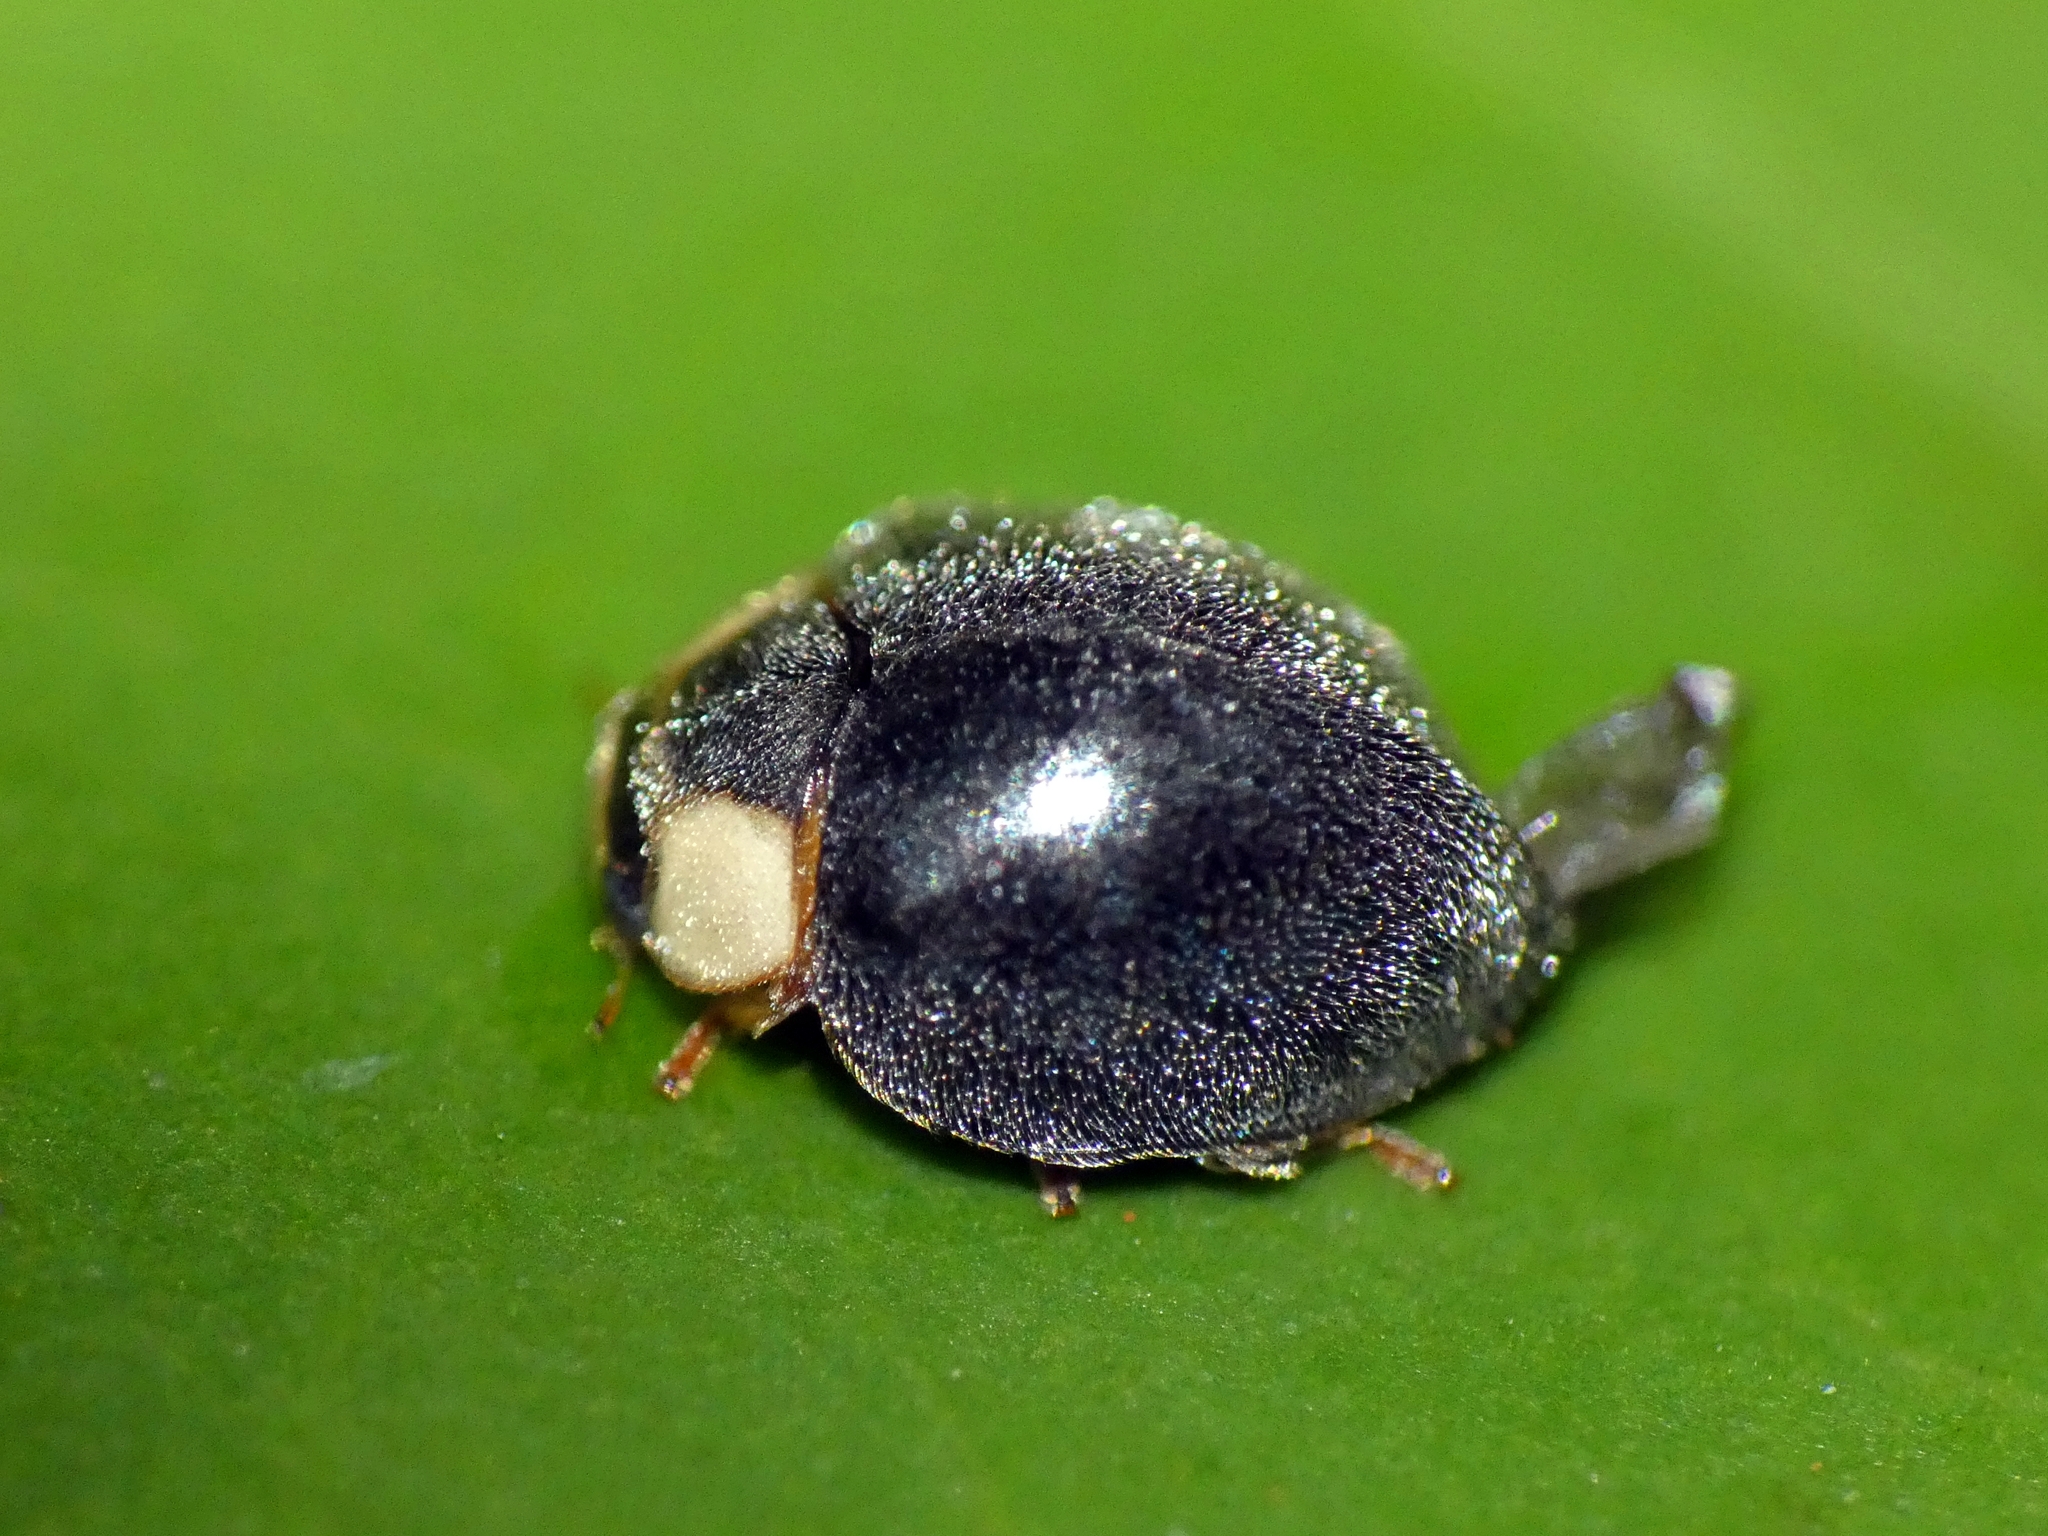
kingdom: Animalia
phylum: Arthropoda
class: Insecta
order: Coleoptera
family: Coccinellidae
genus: Apolinus
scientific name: Apolinus
